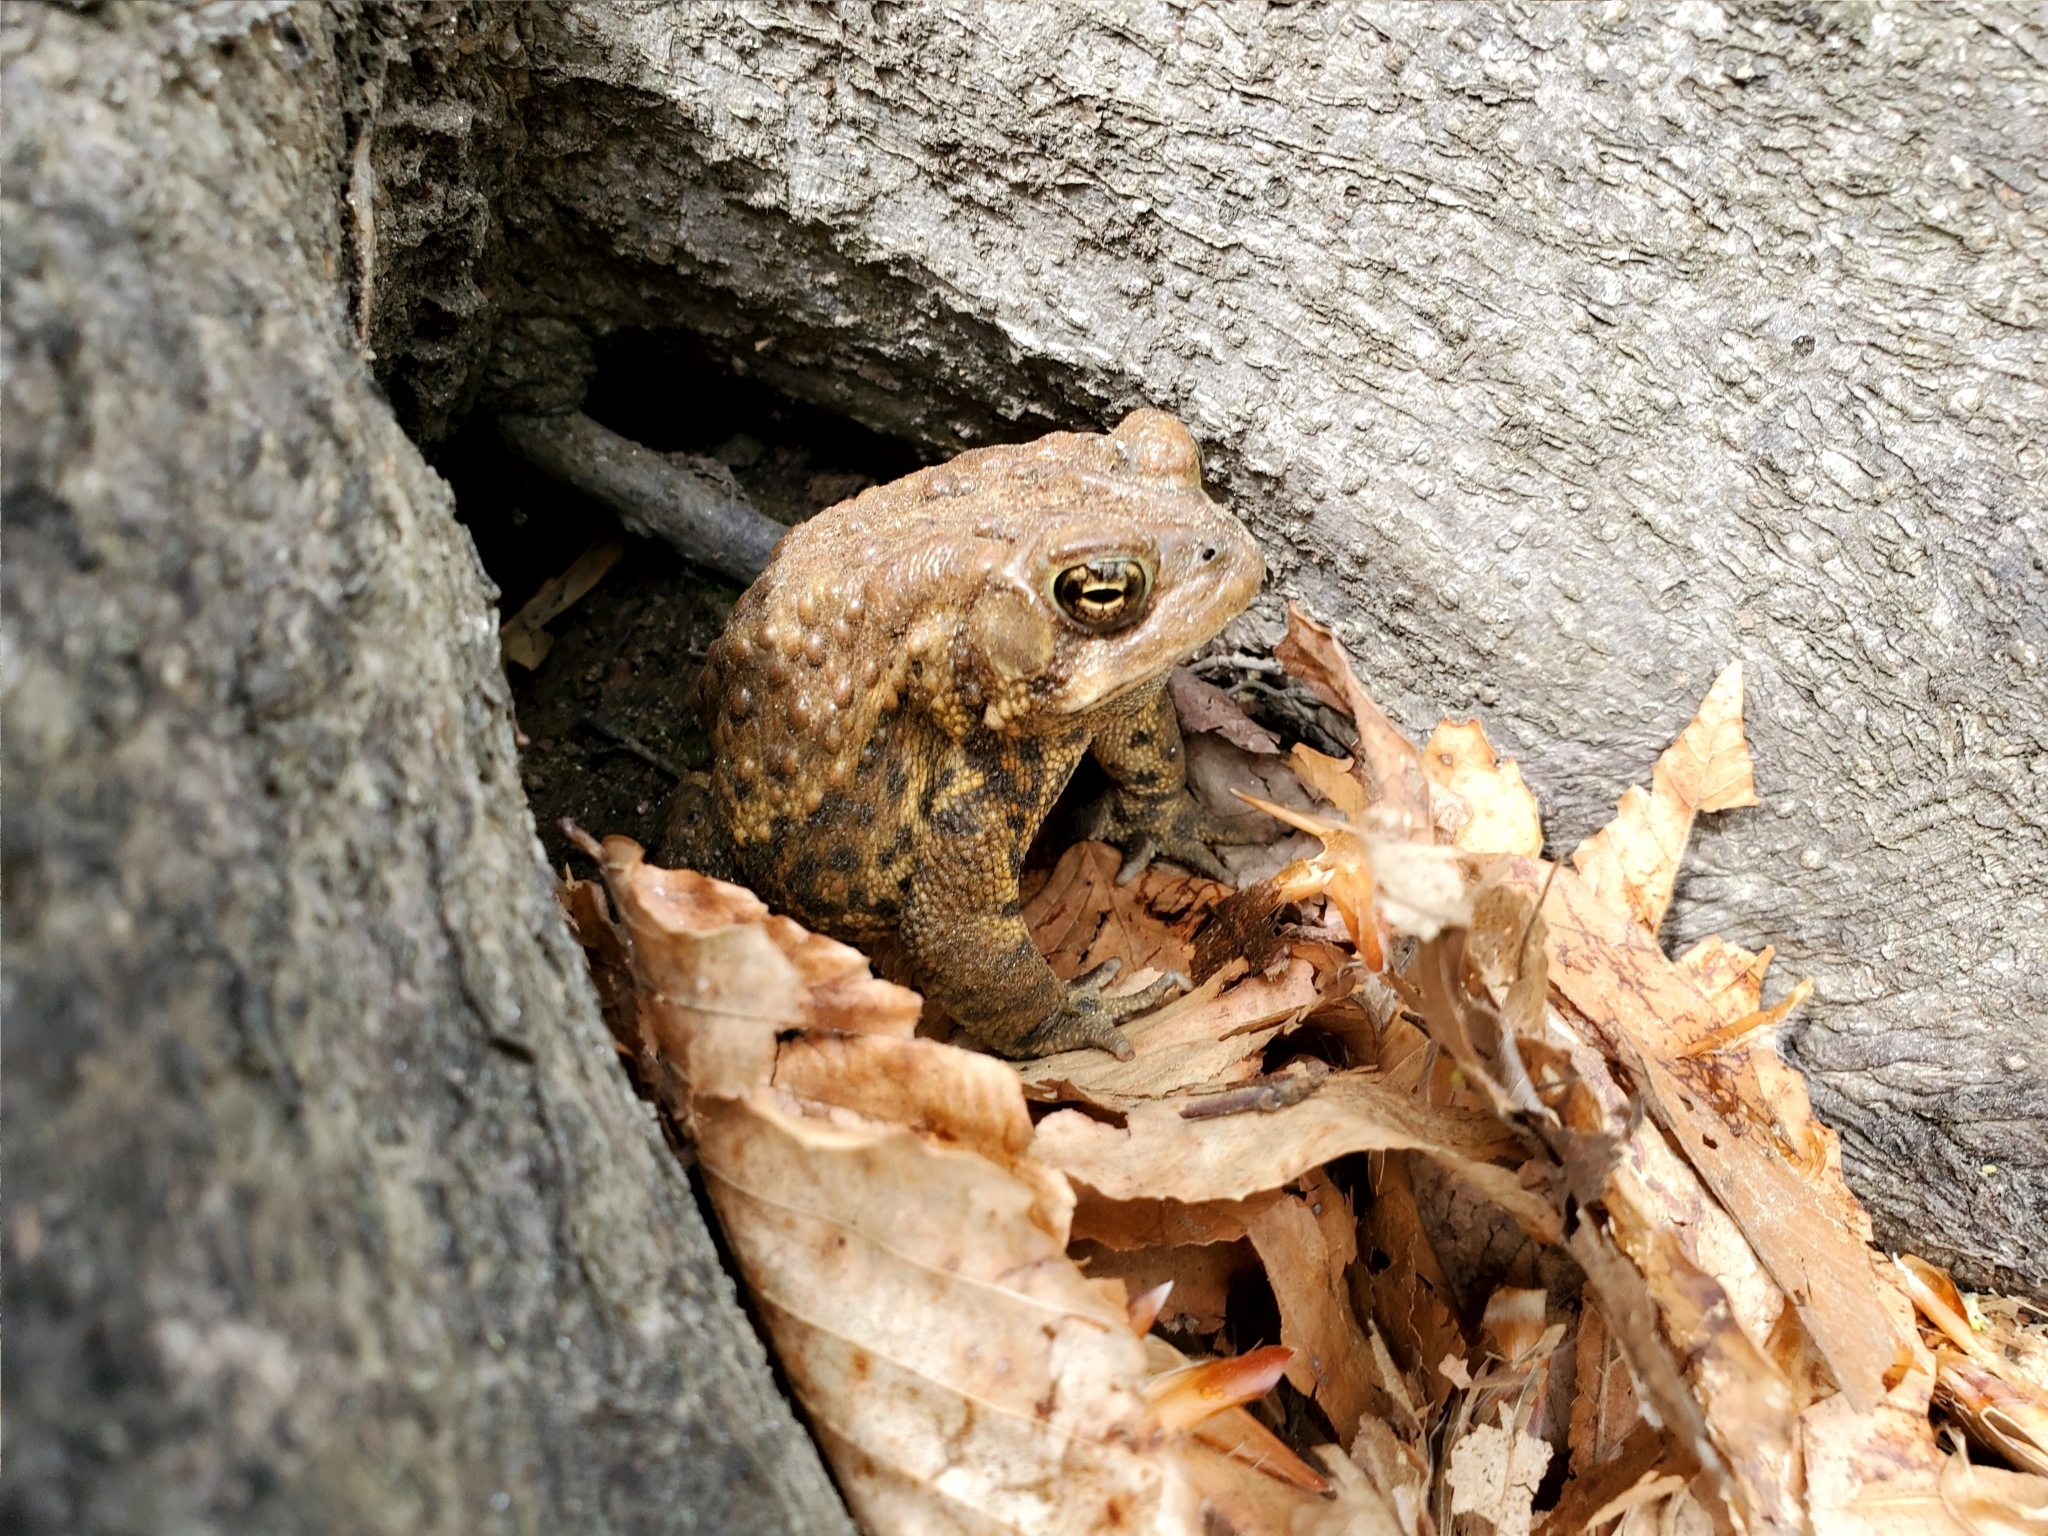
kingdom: Animalia
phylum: Chordata
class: Amphibia
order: Anura
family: Bufonidae
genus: Anaxyrus
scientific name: Anaxyrus americanus
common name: American toad
